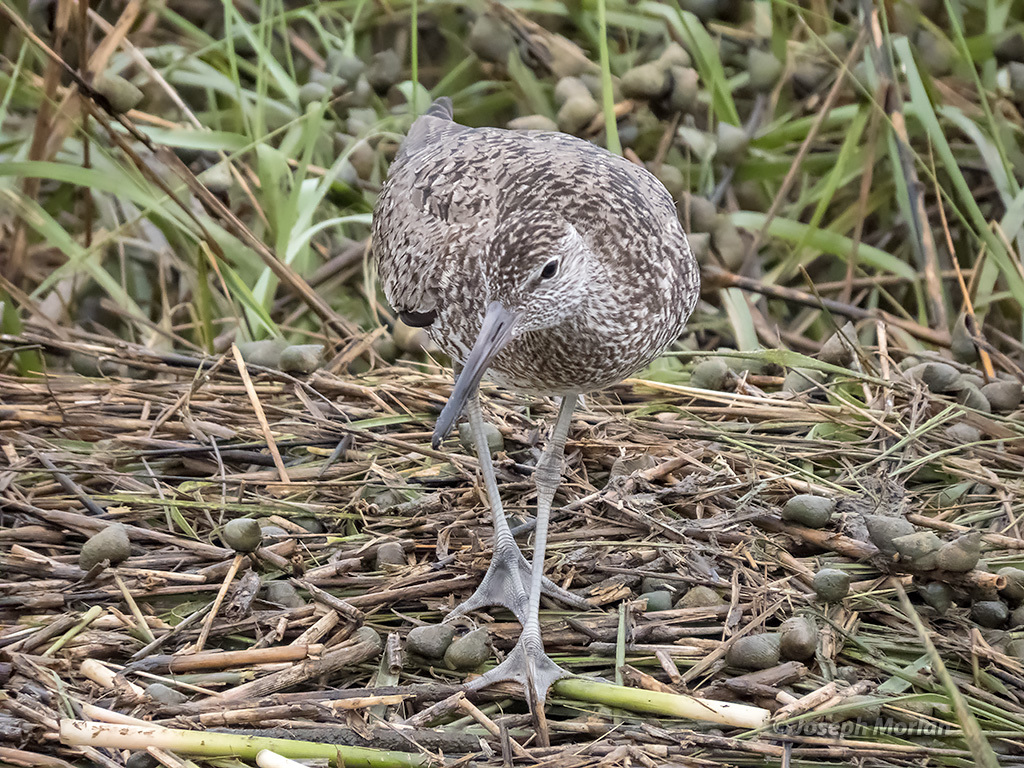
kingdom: Animalia
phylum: Chordata
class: Aves
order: Charadriiformes
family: Scolopacidae
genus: Tringa
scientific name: Tringa semipalmata
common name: Willet
